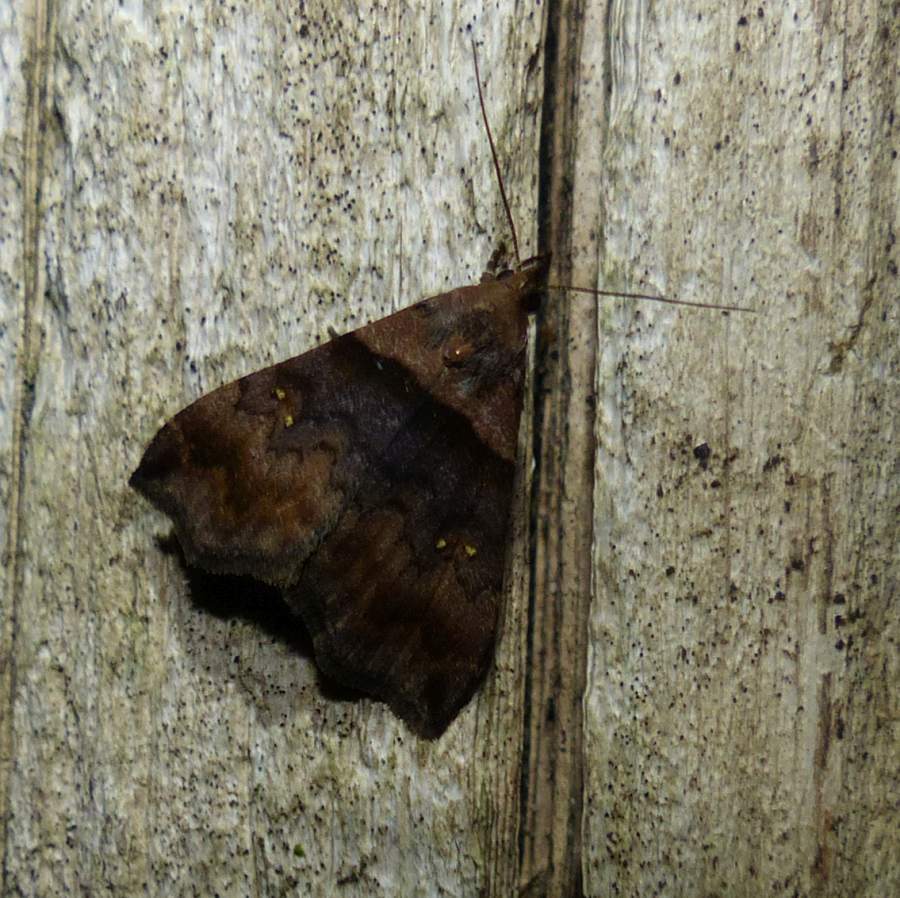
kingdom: Animalia
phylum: Arthropoda
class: Insecta
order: Lepidoptera
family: Erebidae
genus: Lascoria
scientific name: Lascoria ambigualis
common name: Ambiguous moth
